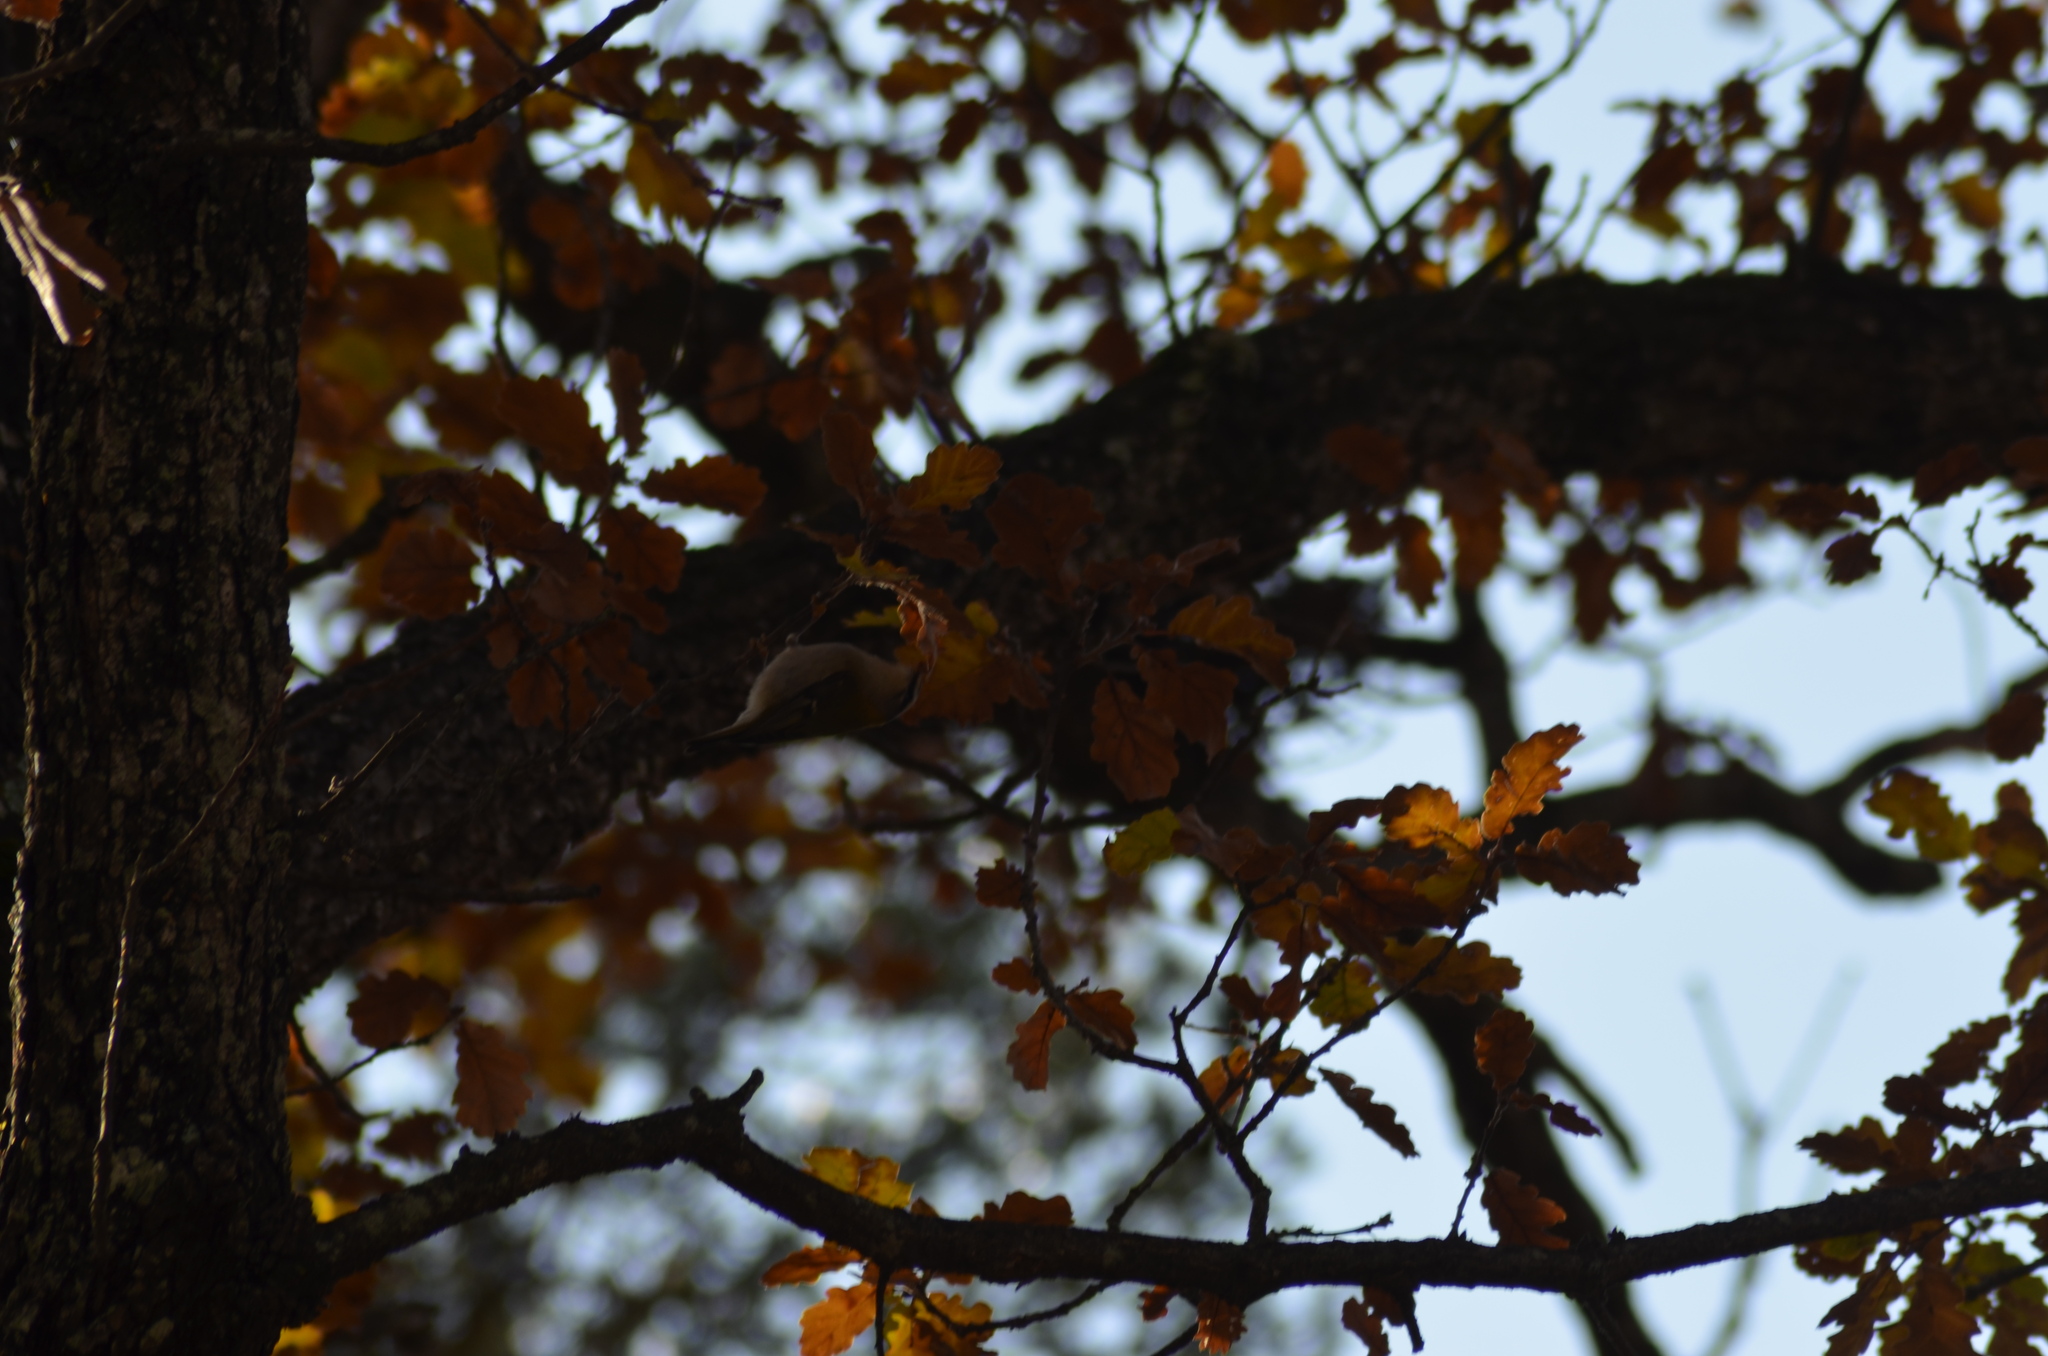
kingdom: Animalia
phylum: Chordata
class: Aves
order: Passeriformes
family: Regulidae
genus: Regulus
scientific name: Regulus ignicapilla
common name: Firecrest
